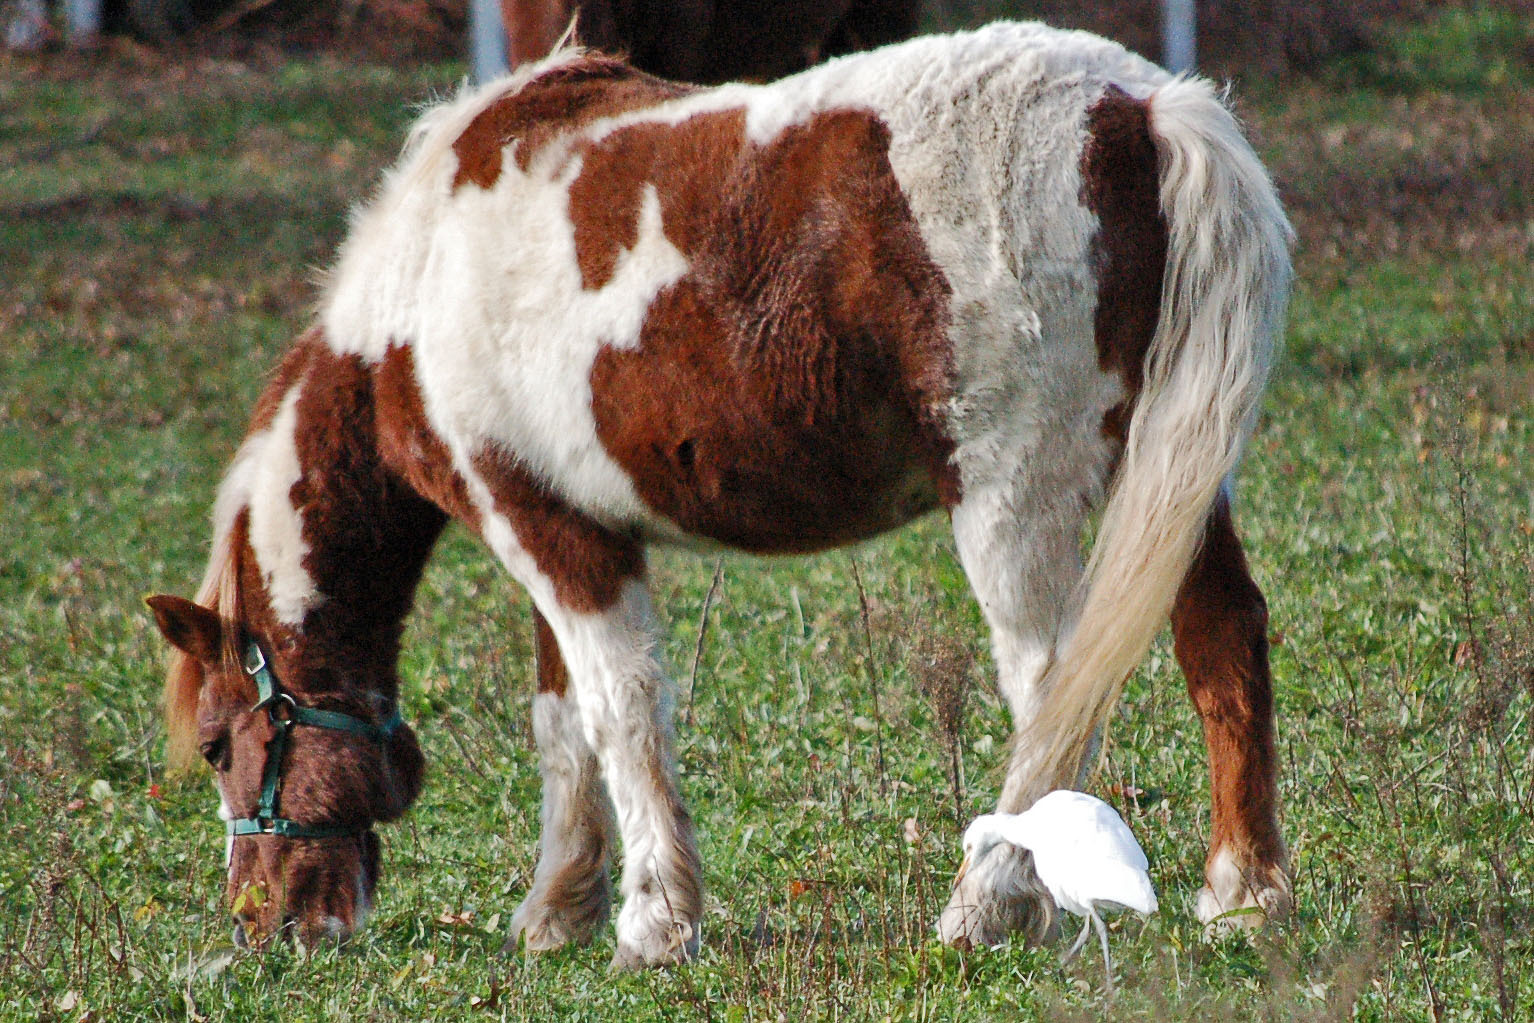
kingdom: Animalia
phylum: Chordata
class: Aves
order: Pelecaniformes
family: Ardeidae
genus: Bubulcus
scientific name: Bubulcus ibis
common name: Cattle egret
